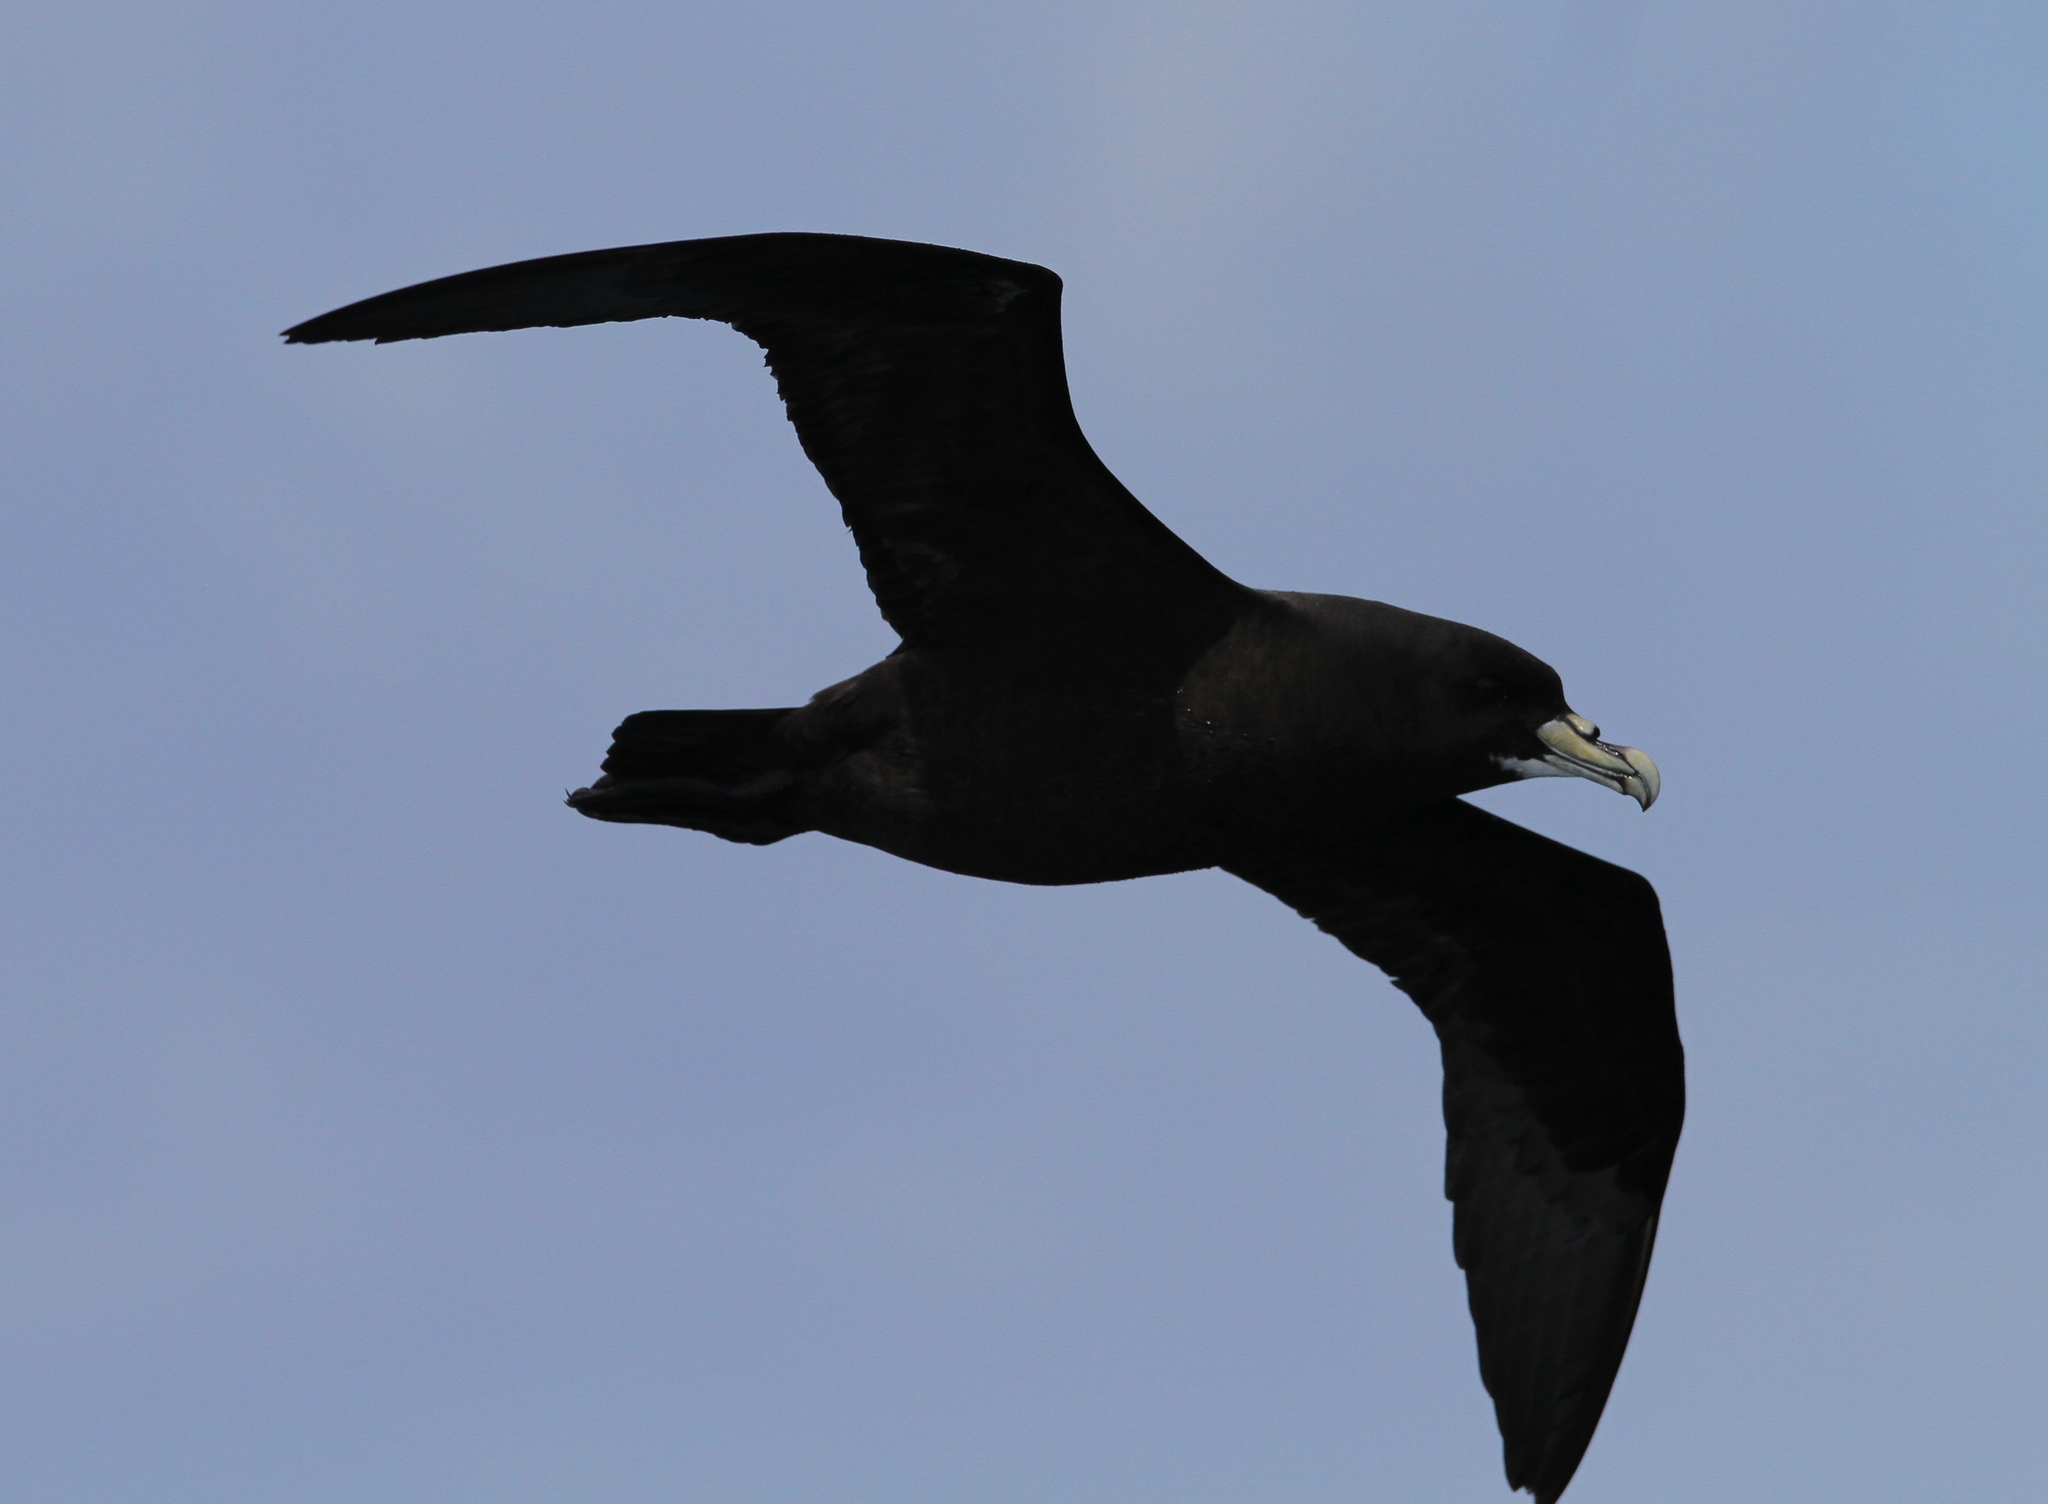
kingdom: Animalia
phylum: Chordata
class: Aves
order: Procellariiformes
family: Procellariidae
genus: Procellaria
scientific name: Procellaria aequinoctialis
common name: White-chinned petrel
